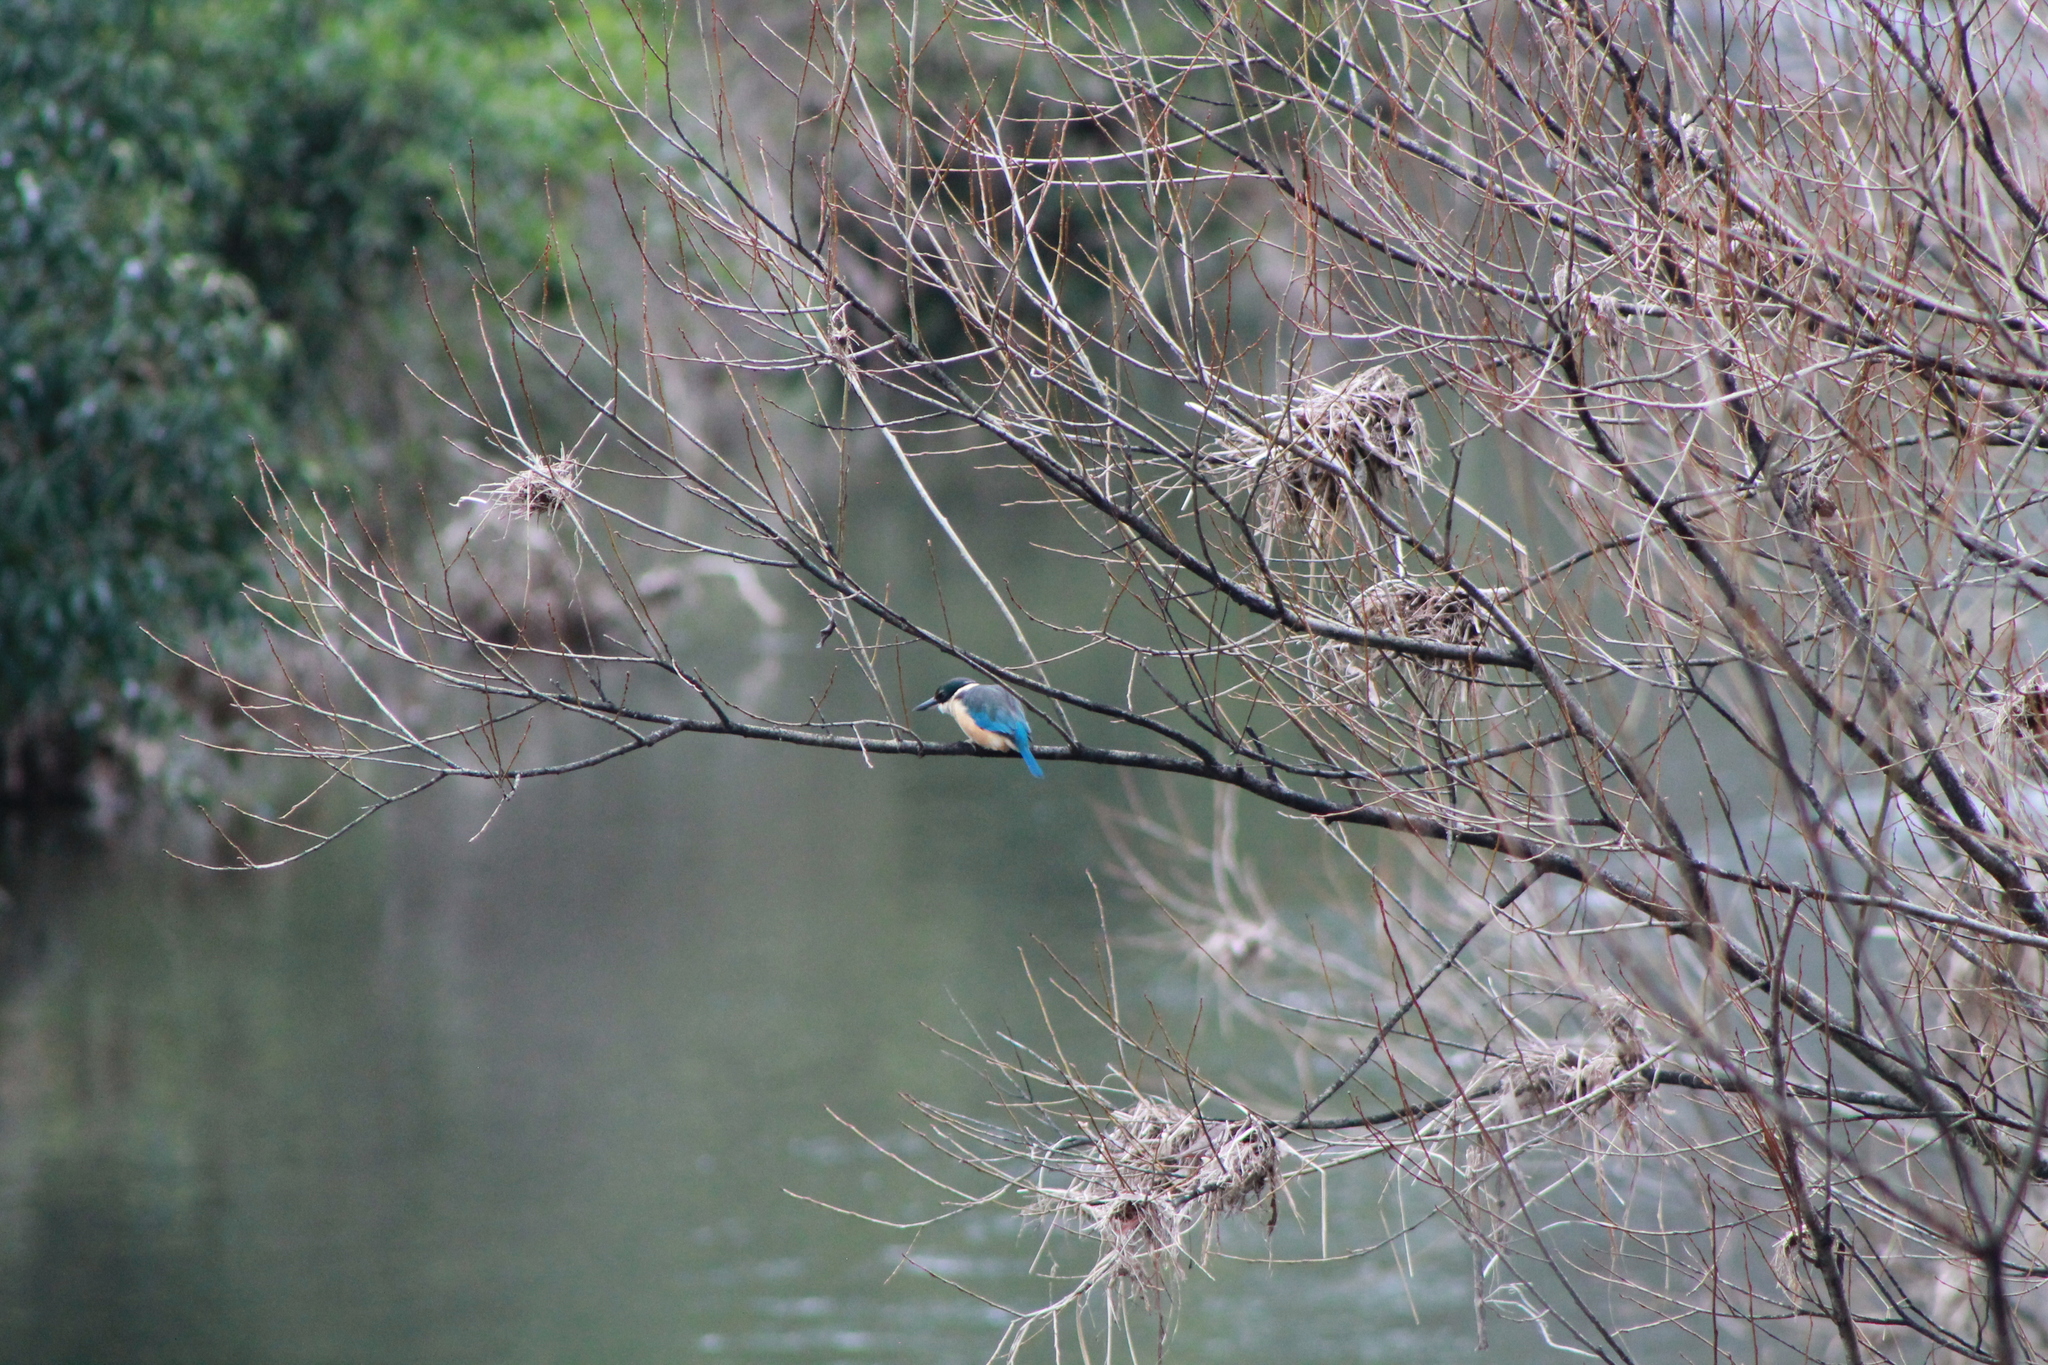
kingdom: Animalia
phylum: Chordata
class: Aves
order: Coraciiformes
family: Alcedinidae
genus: Todiramphus
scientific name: Todiramphus sanctus
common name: Sacred kingfisher
